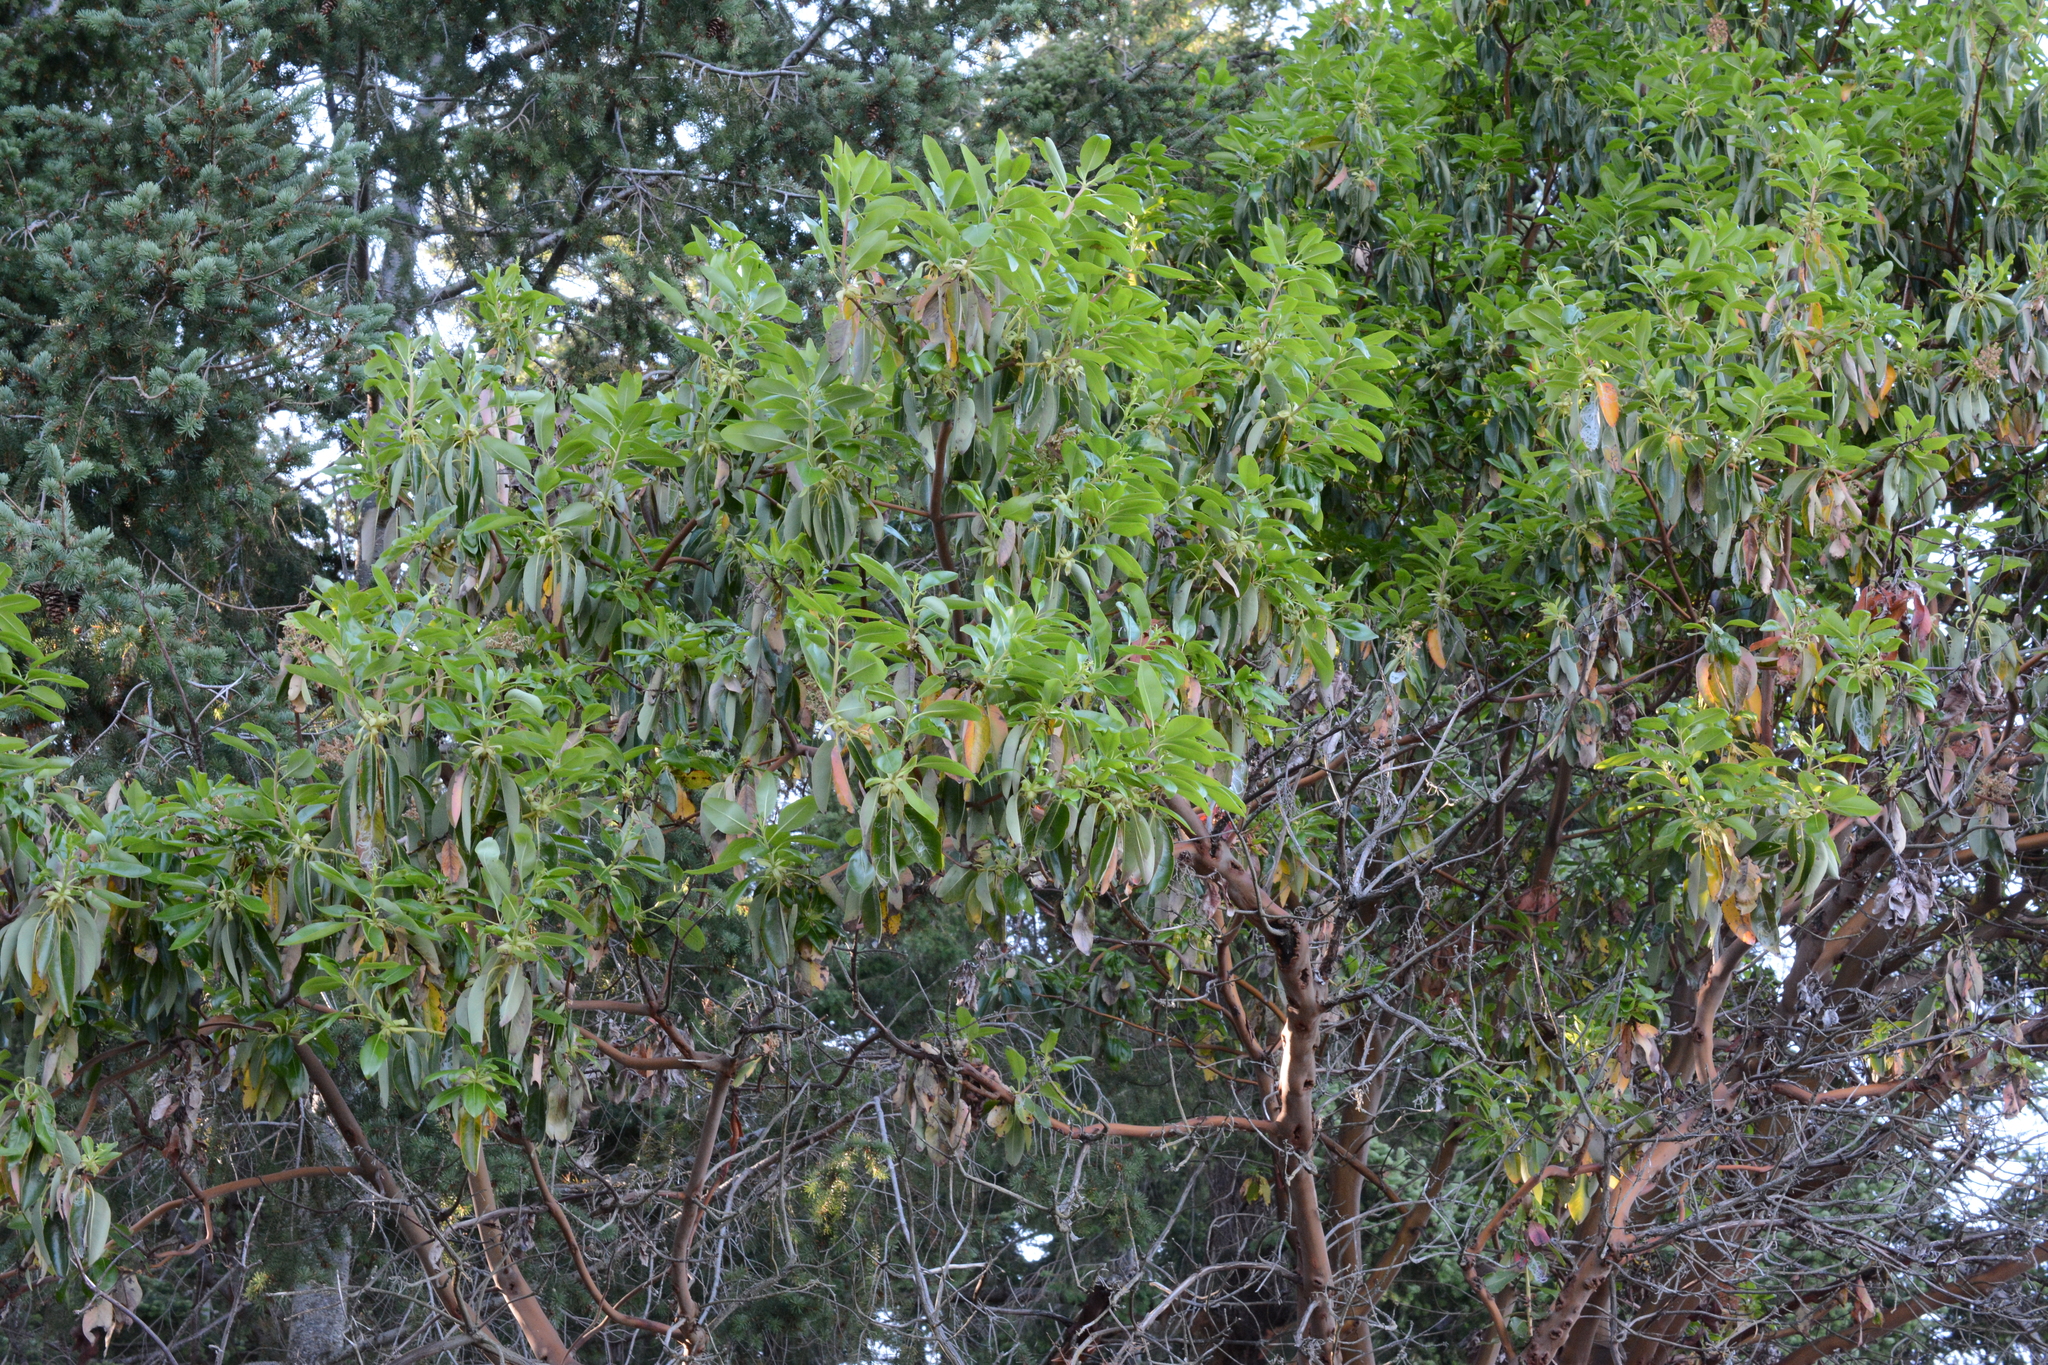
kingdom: Plantae
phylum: Tracheophyta
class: Magnoliopsida
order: Ericales
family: Ericaceae
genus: Arbutus
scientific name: Arbutus menziesii
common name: Pacific madrone
